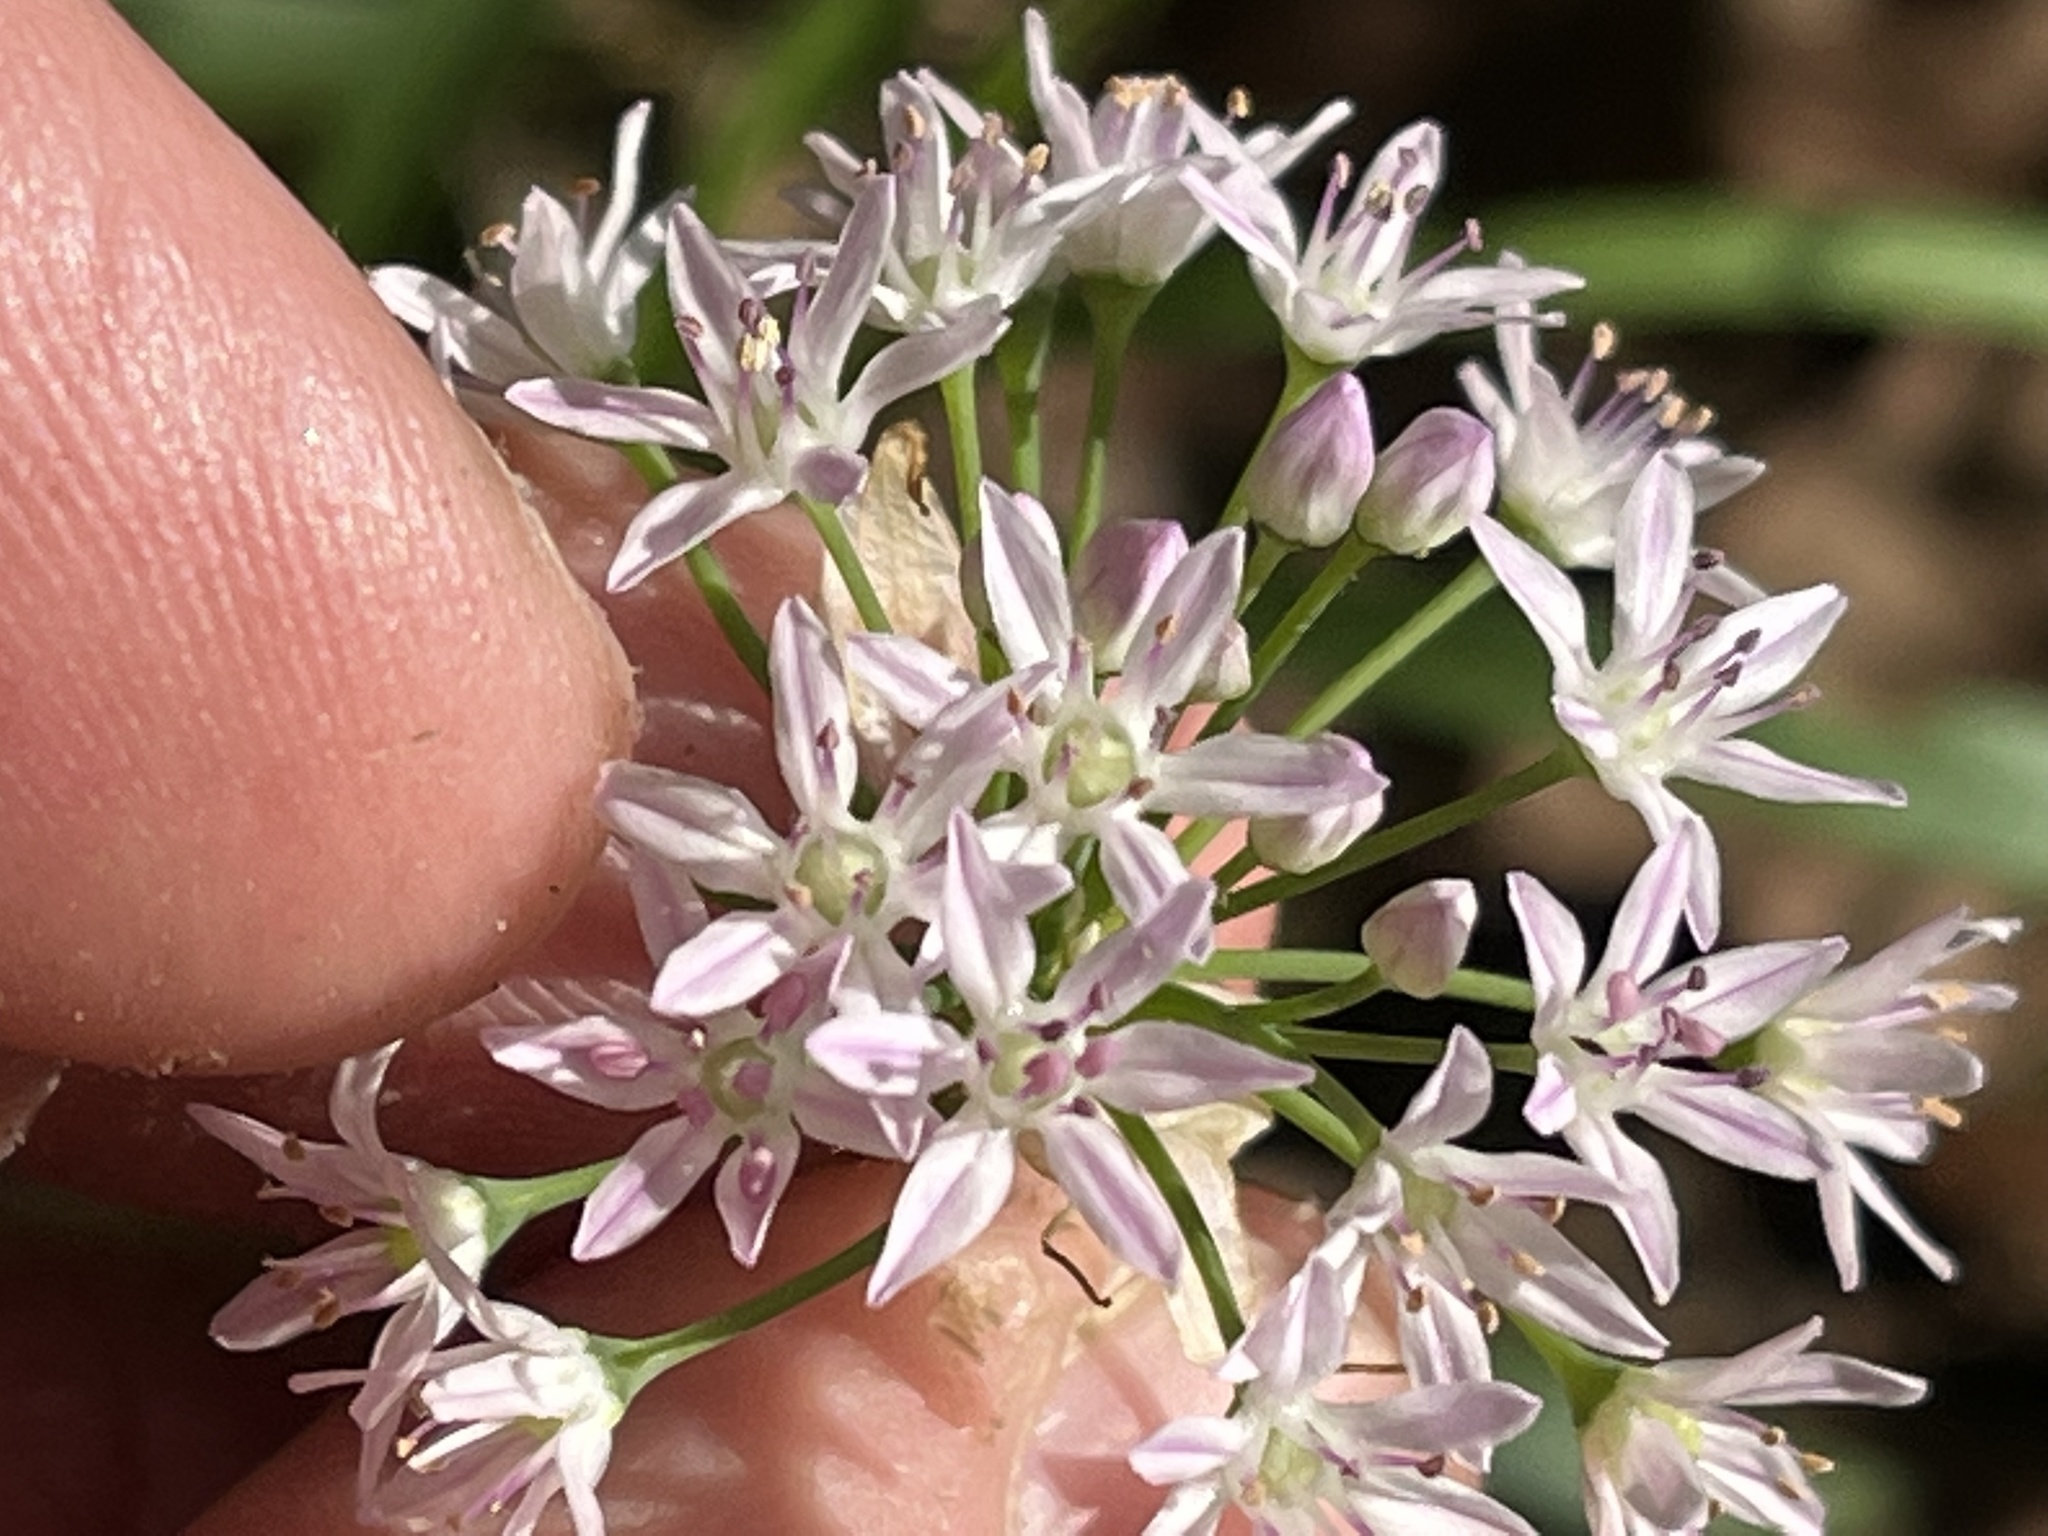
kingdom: Plantae
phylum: Tracheophyta
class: Liliopsida
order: Asparagales
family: Amaryllidaceae
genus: Allium
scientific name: Allium canadense
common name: Meadow garlic
